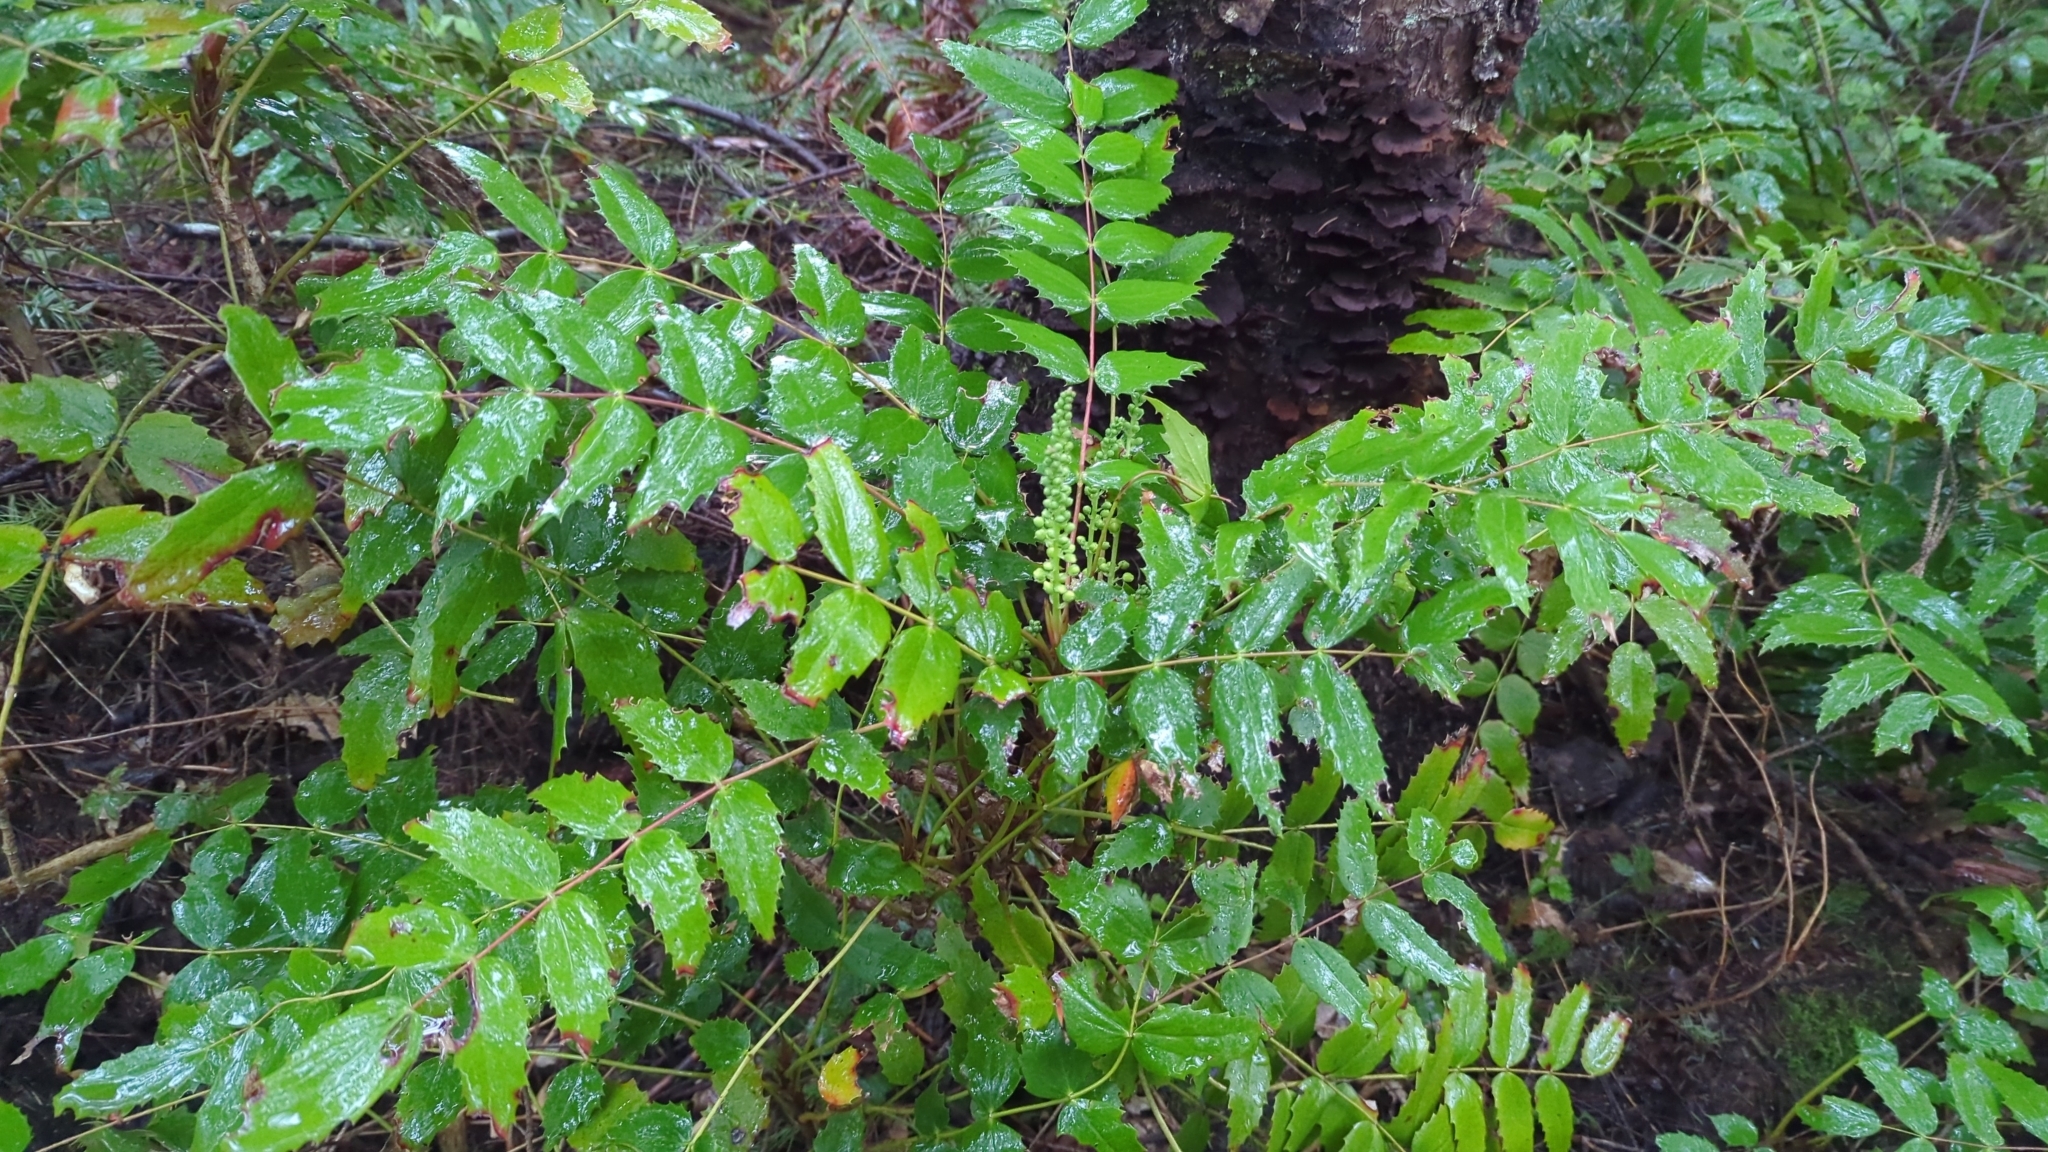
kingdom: Plantae
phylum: Tracheophyta
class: Magnoliopsida
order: Ranunculales
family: Berberidaceae
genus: Mahonia
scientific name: Mahonia nervosa
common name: Cascade oregon-grape
